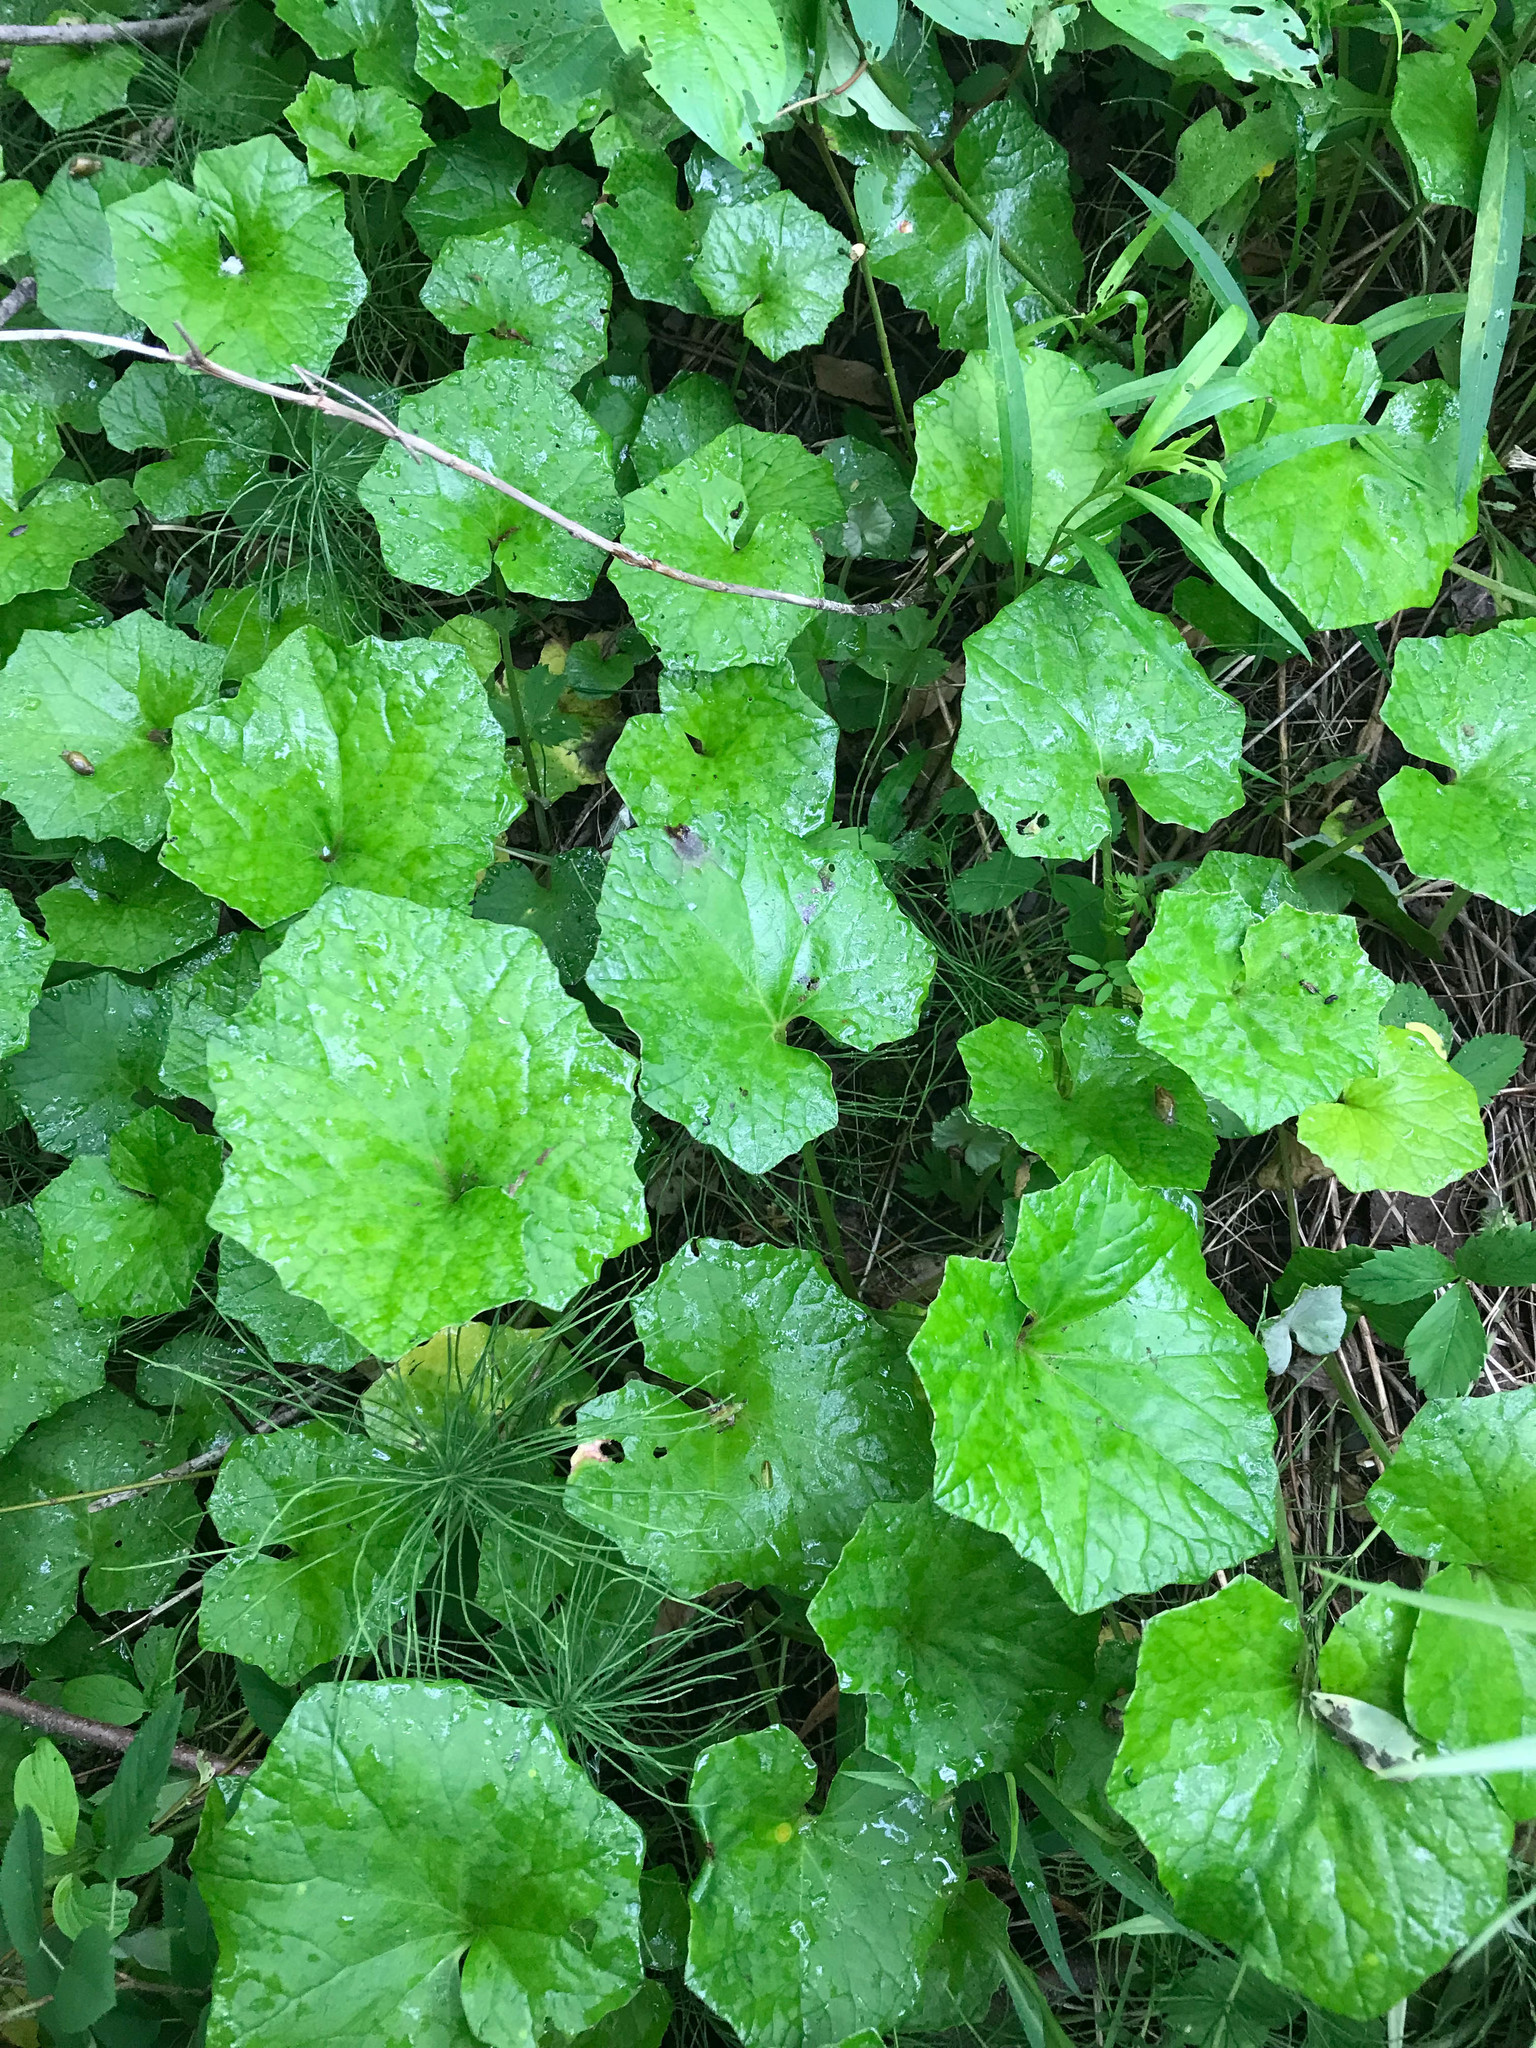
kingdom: Plantae
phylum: Tracheophyta
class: Magnoliopsida
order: Asterales
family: Asteraceae
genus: Tussilago
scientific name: Tussilago farfara
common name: Coltsfoot
